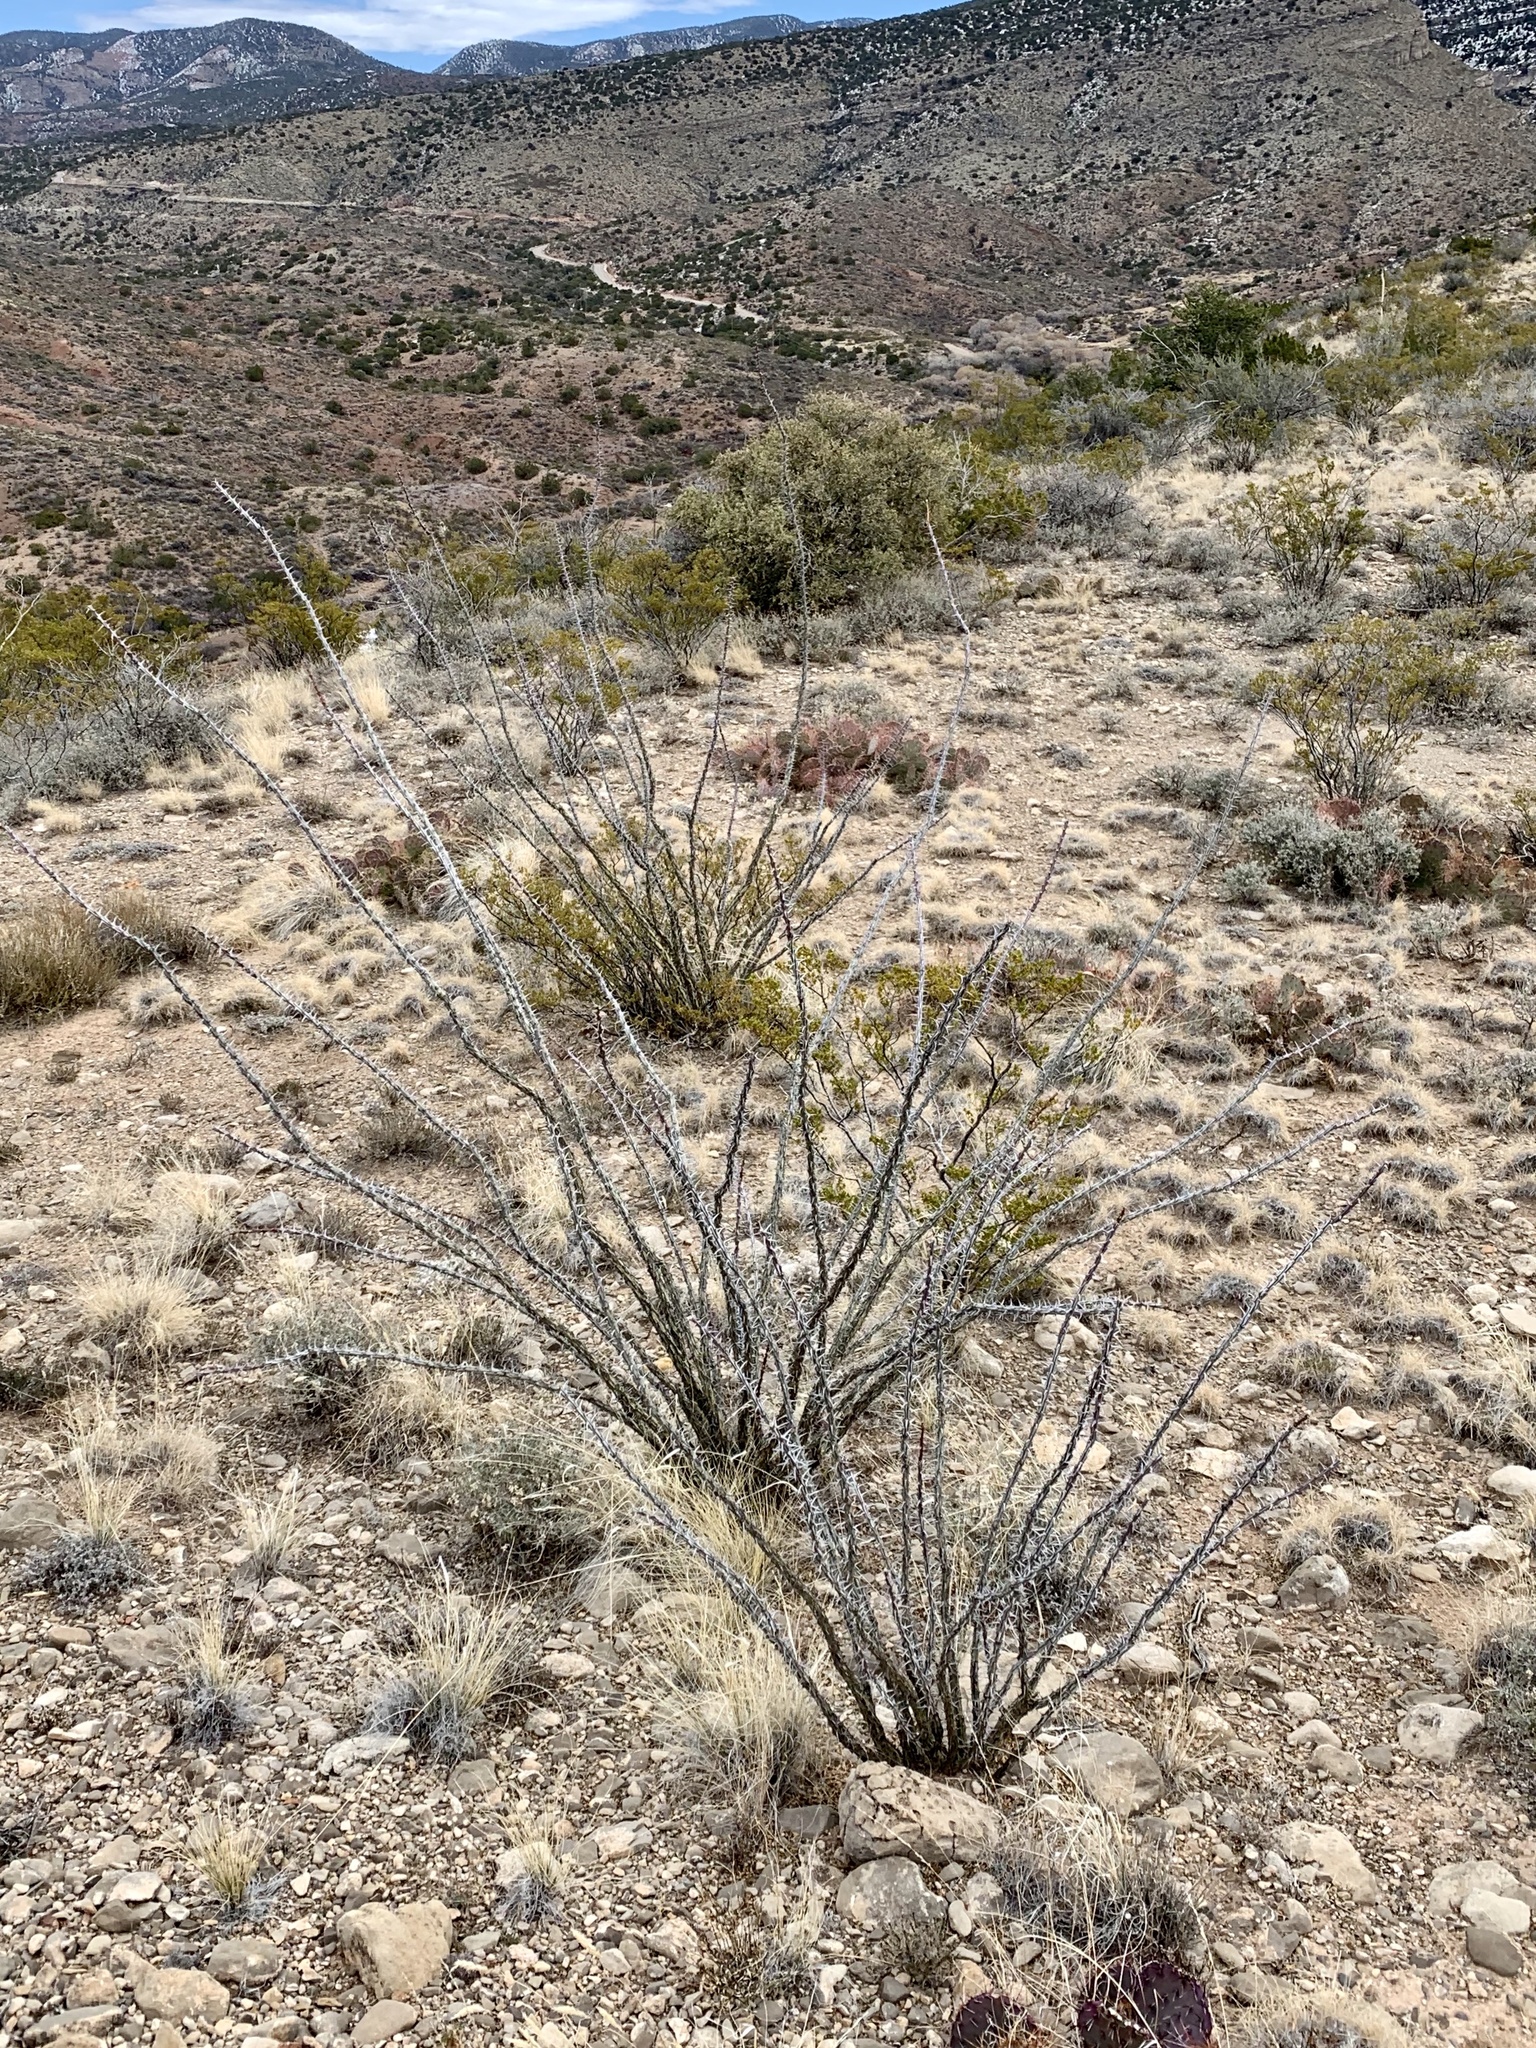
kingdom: Plantae
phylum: Tracheophyta
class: Magnoliopsida
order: Ericales
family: Fouquieriaceae
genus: Fouquieria
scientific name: Fouquieria splendens
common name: Vine-cactus
